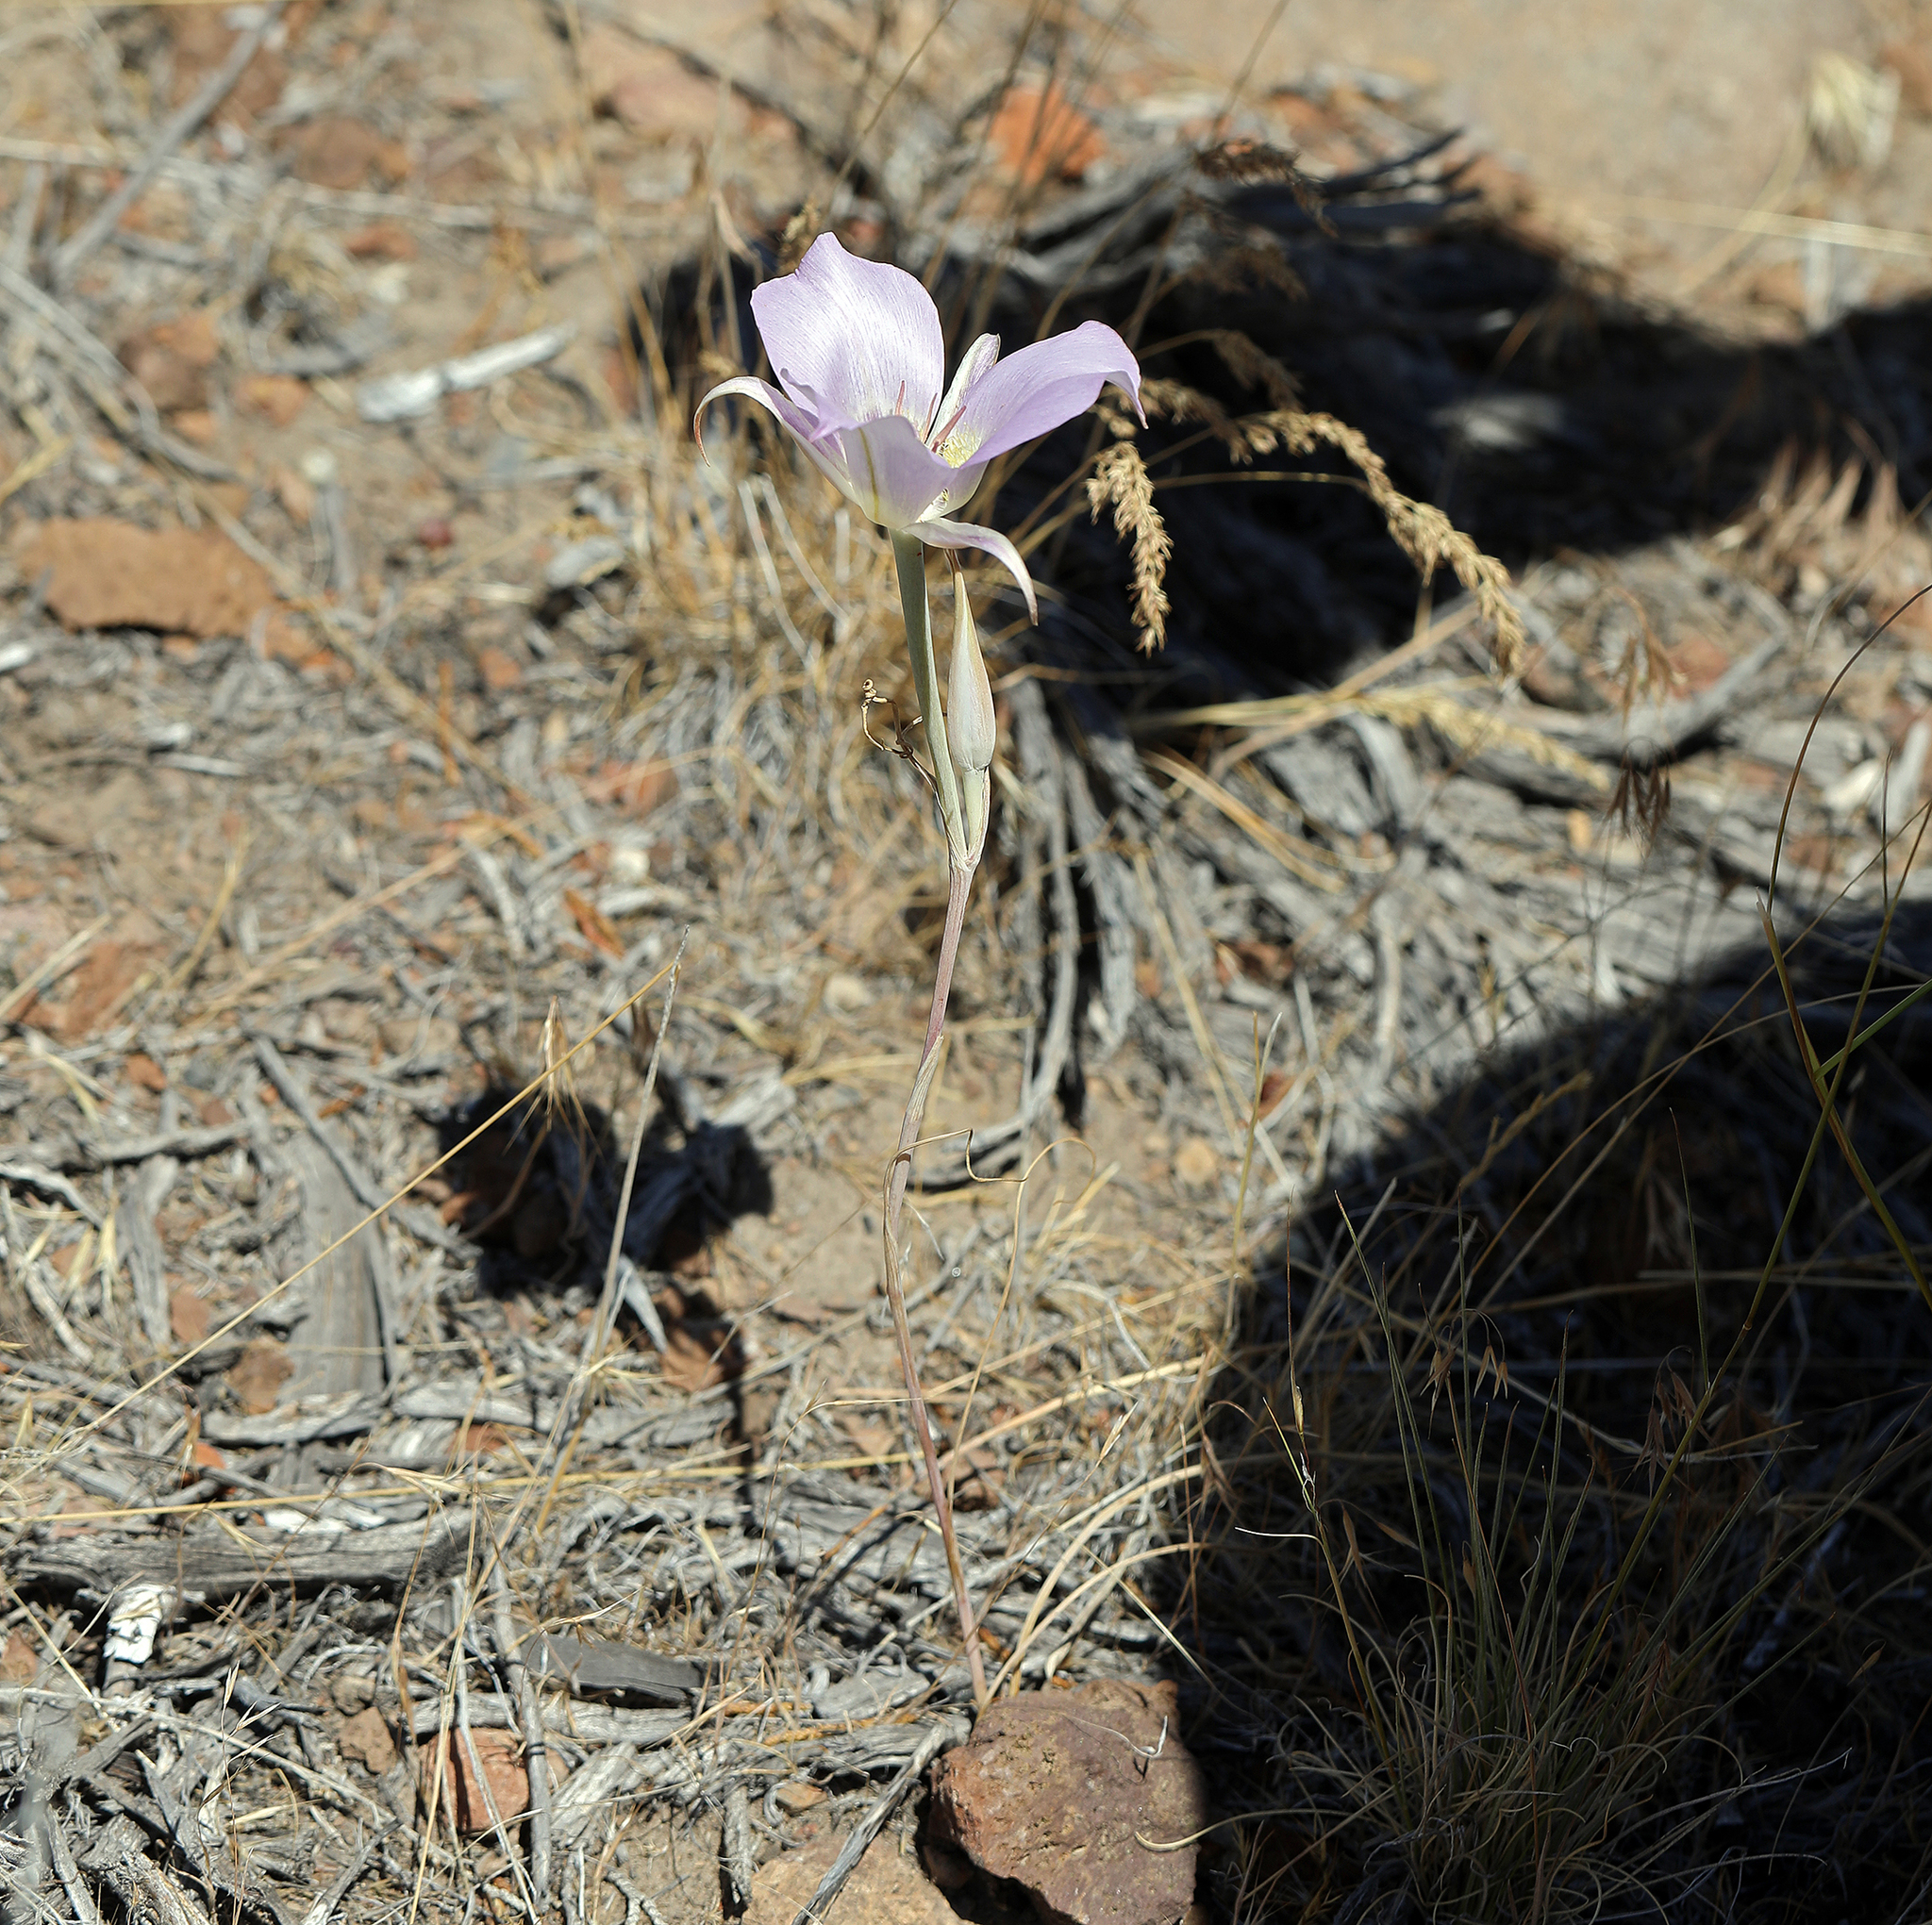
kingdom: Plantae
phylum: Tracheophyta
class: Liliopsida
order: Liliales
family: Liliaceae
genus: Calochortus
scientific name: Calochortus macrocarpus
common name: Green-band mariposa lily
